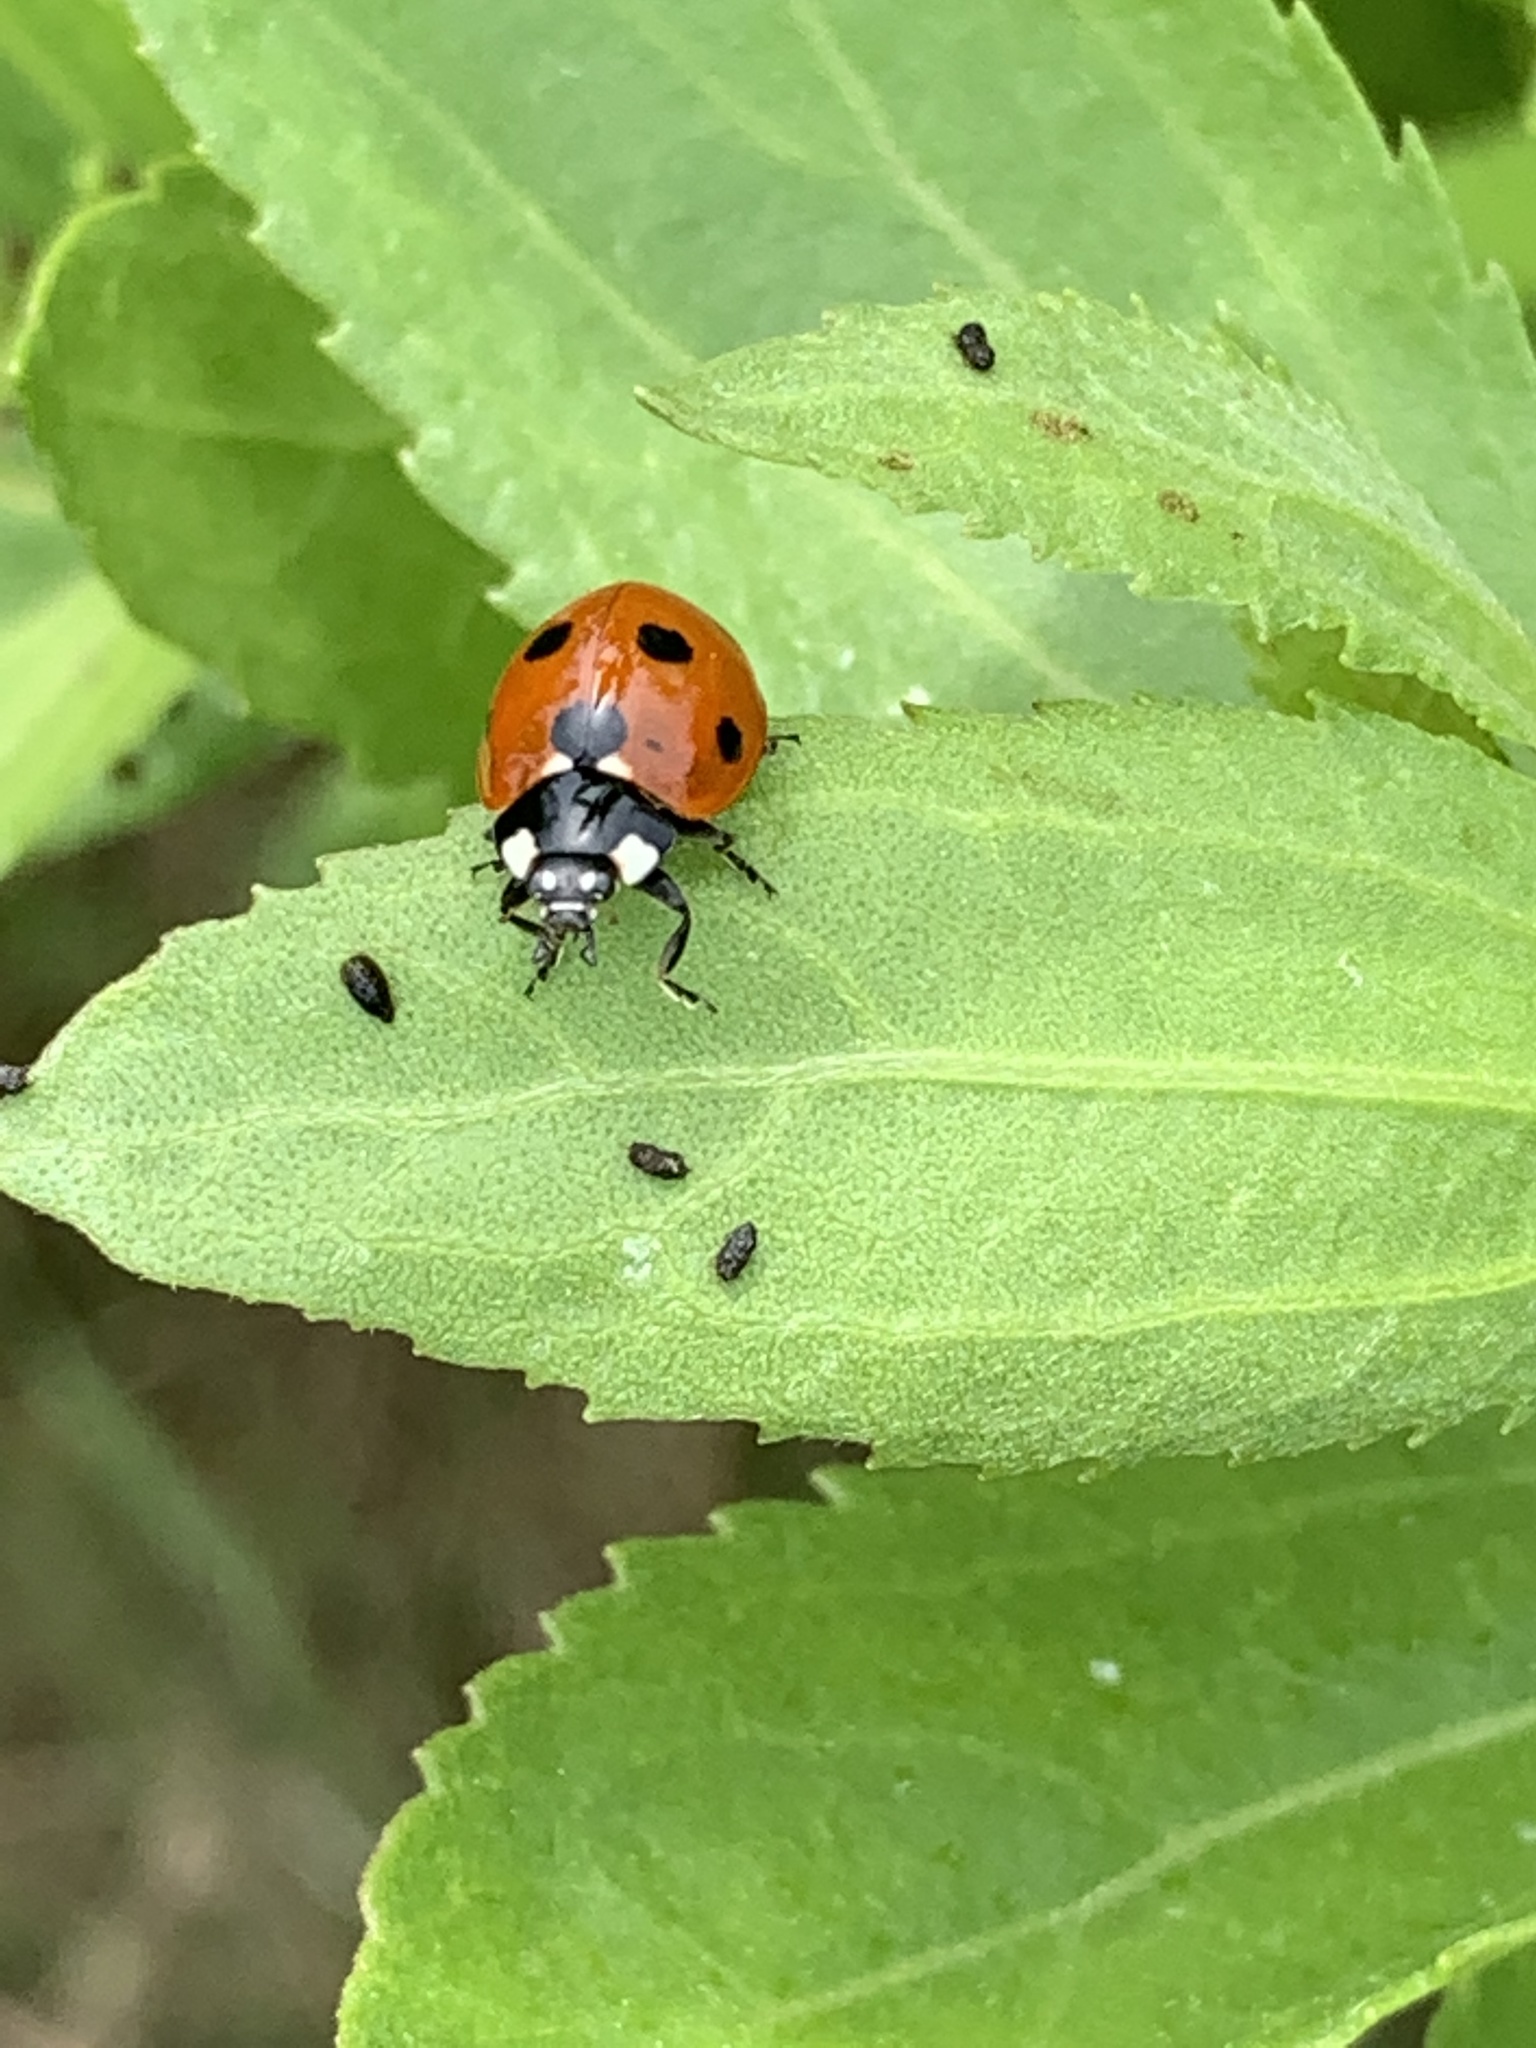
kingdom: Animalia
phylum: Arthropoda
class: Insecta
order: Coleoptera
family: Coccinellidae
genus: Coccinella
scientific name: Coccinella septempunctata
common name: Sevenspotted lady beetle
